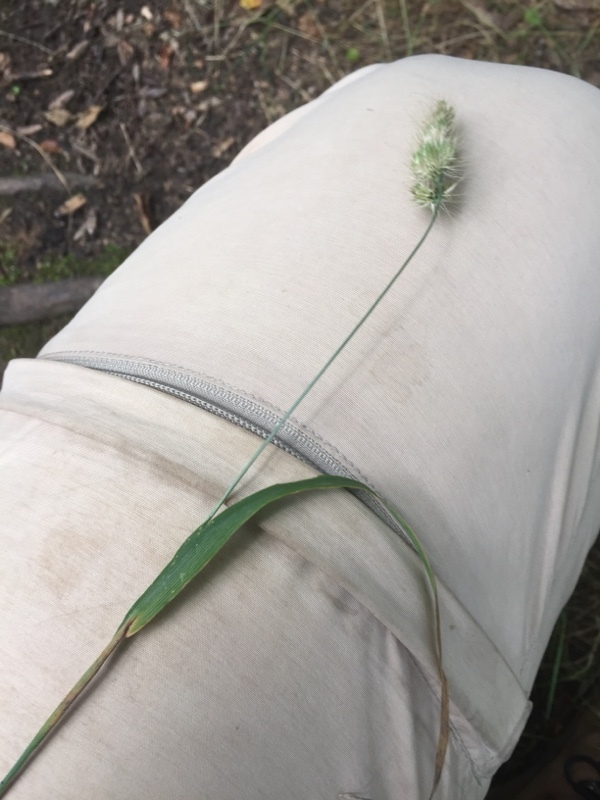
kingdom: Plantae
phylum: Tracheophyta
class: Liliopsida
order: Poales
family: Poaceae
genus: Cynosurus
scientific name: Cynosurus echinatus
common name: Rough dog's-tail
